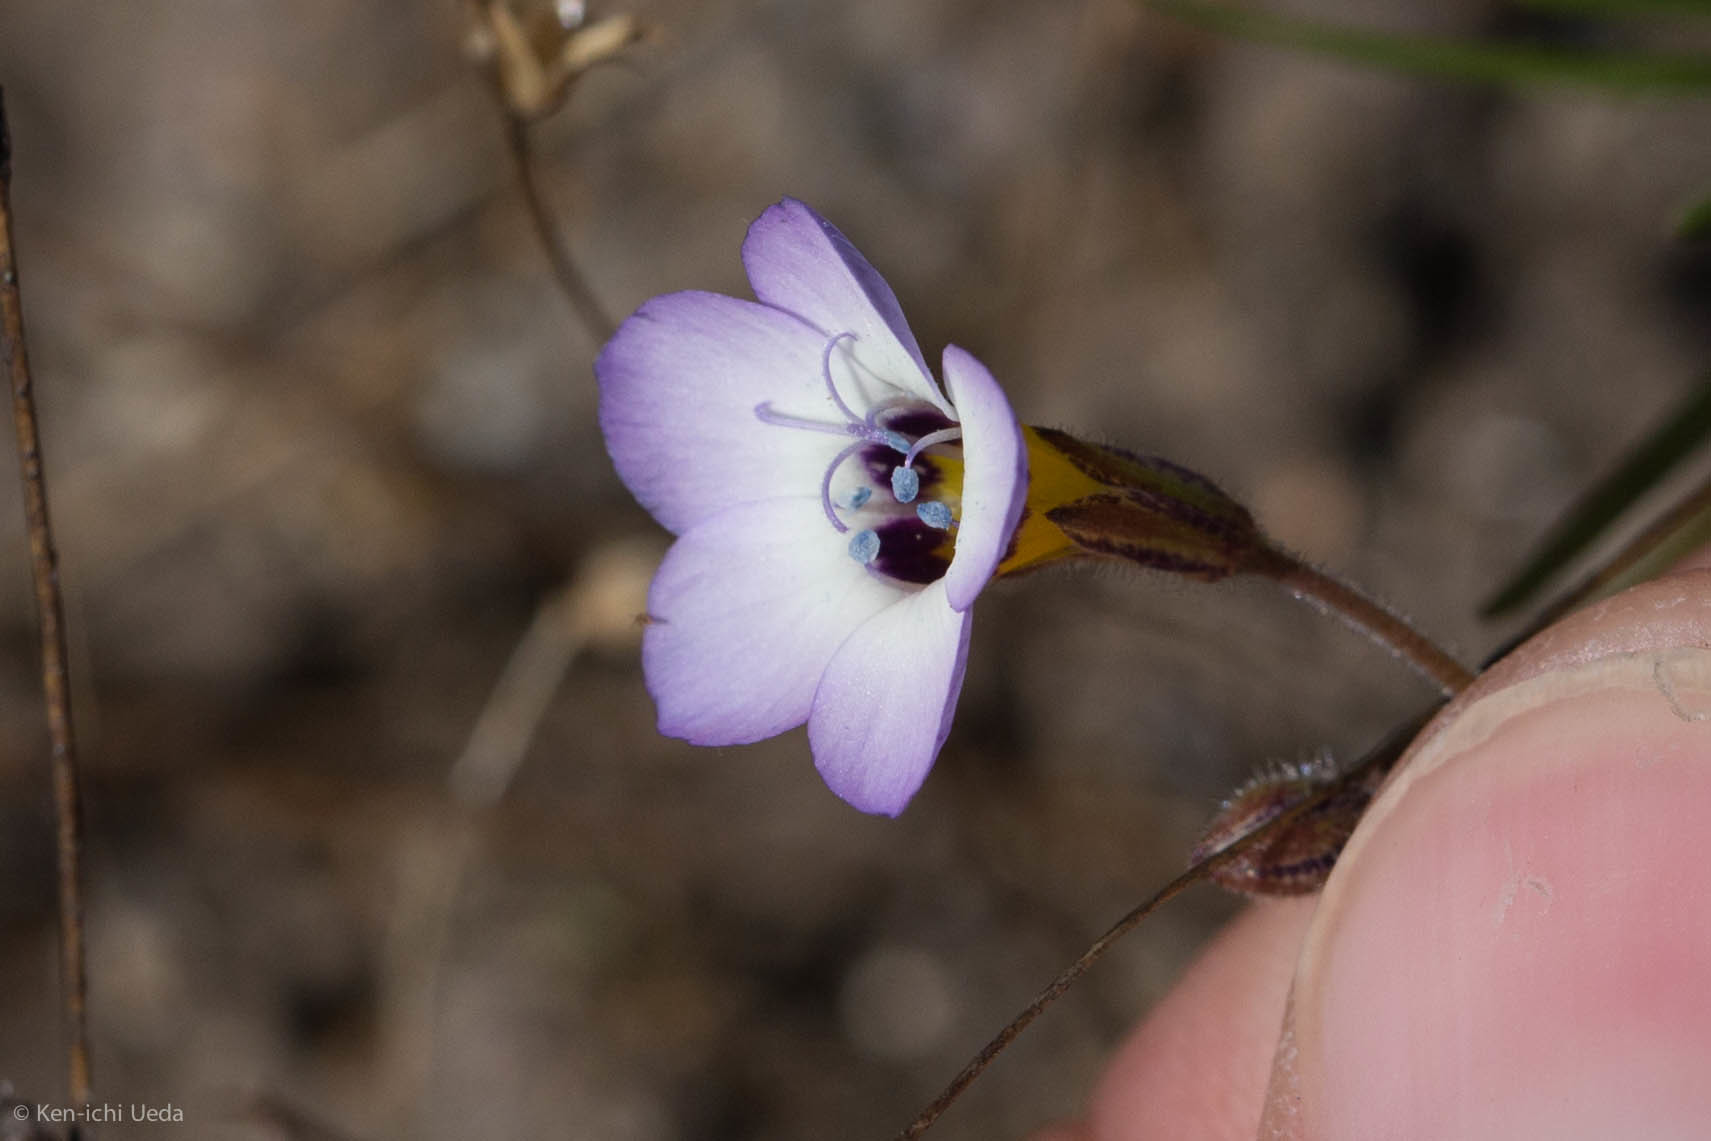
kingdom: Plantae
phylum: Tracheophyta
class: Magnoliopsida
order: Ericales
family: Polemoniaceae
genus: Gilia
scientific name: Gilia tricolor
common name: Bird's-eyes
